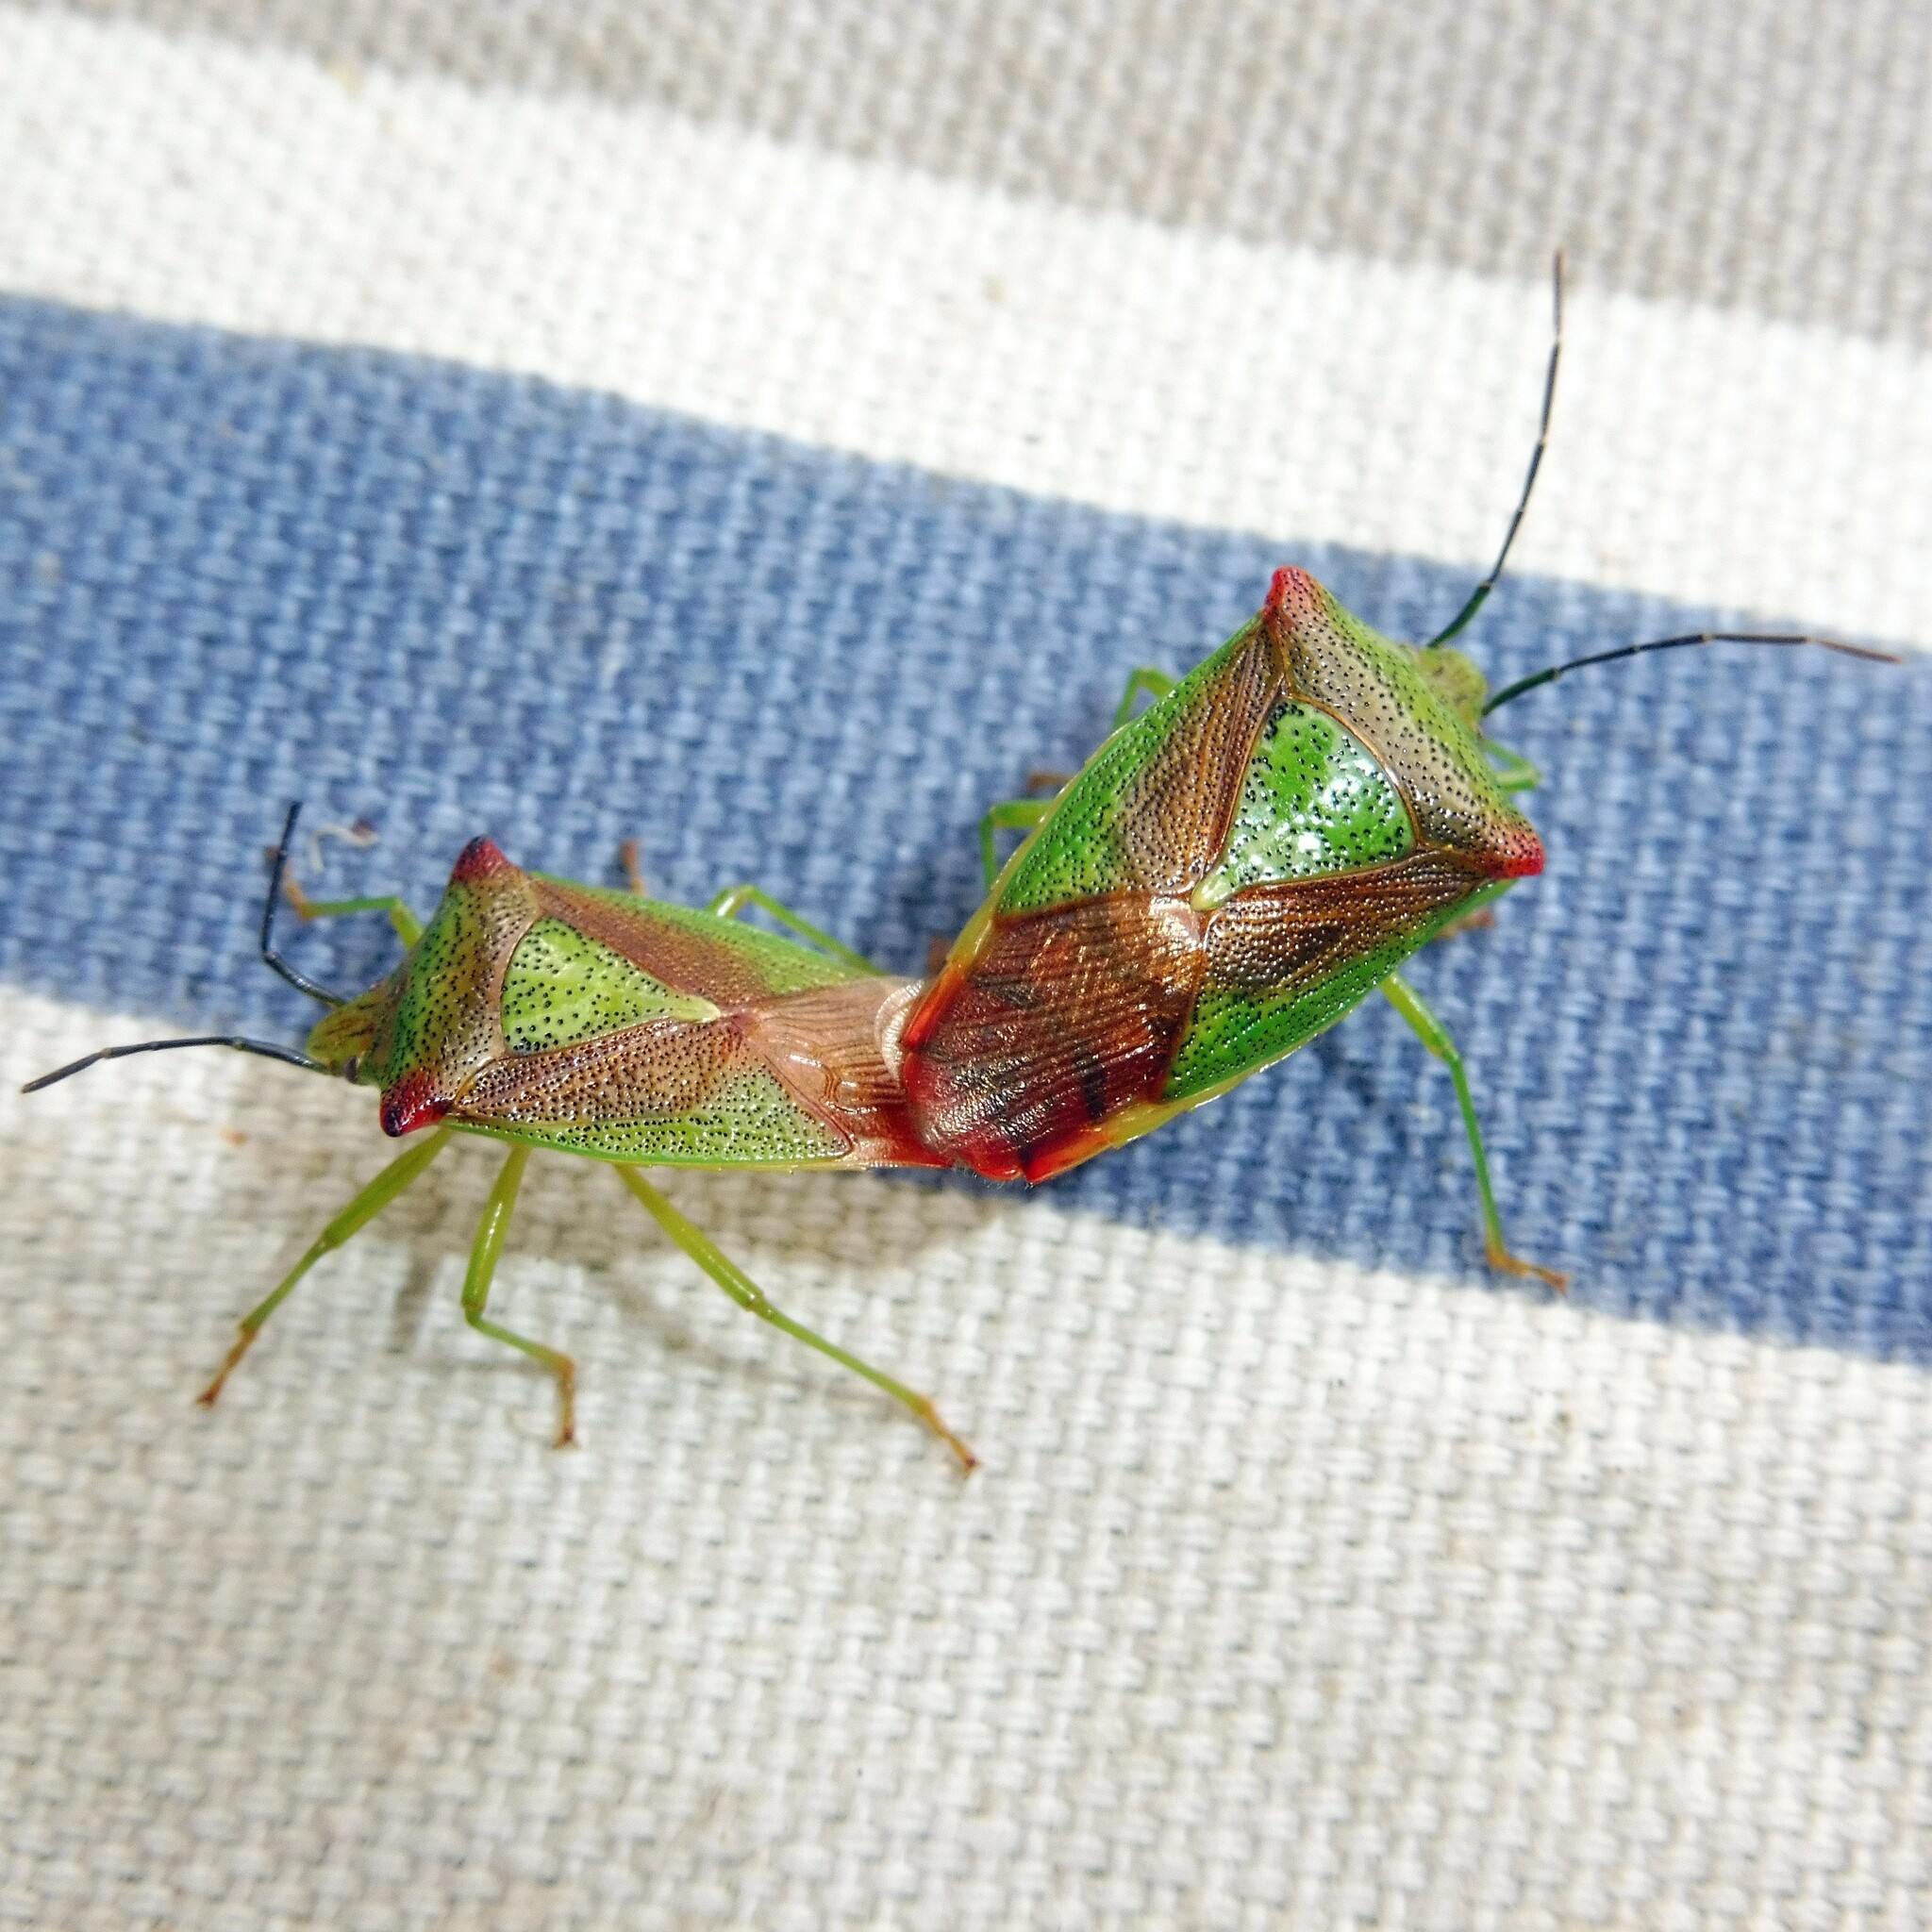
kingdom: Animalia
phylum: Arthropoda
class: Insecta
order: Hemiptera
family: Acanthosomatidae
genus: Acanthosoma
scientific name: Acanthosoma haemorrhoidale
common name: Hawthorn shieldbug
